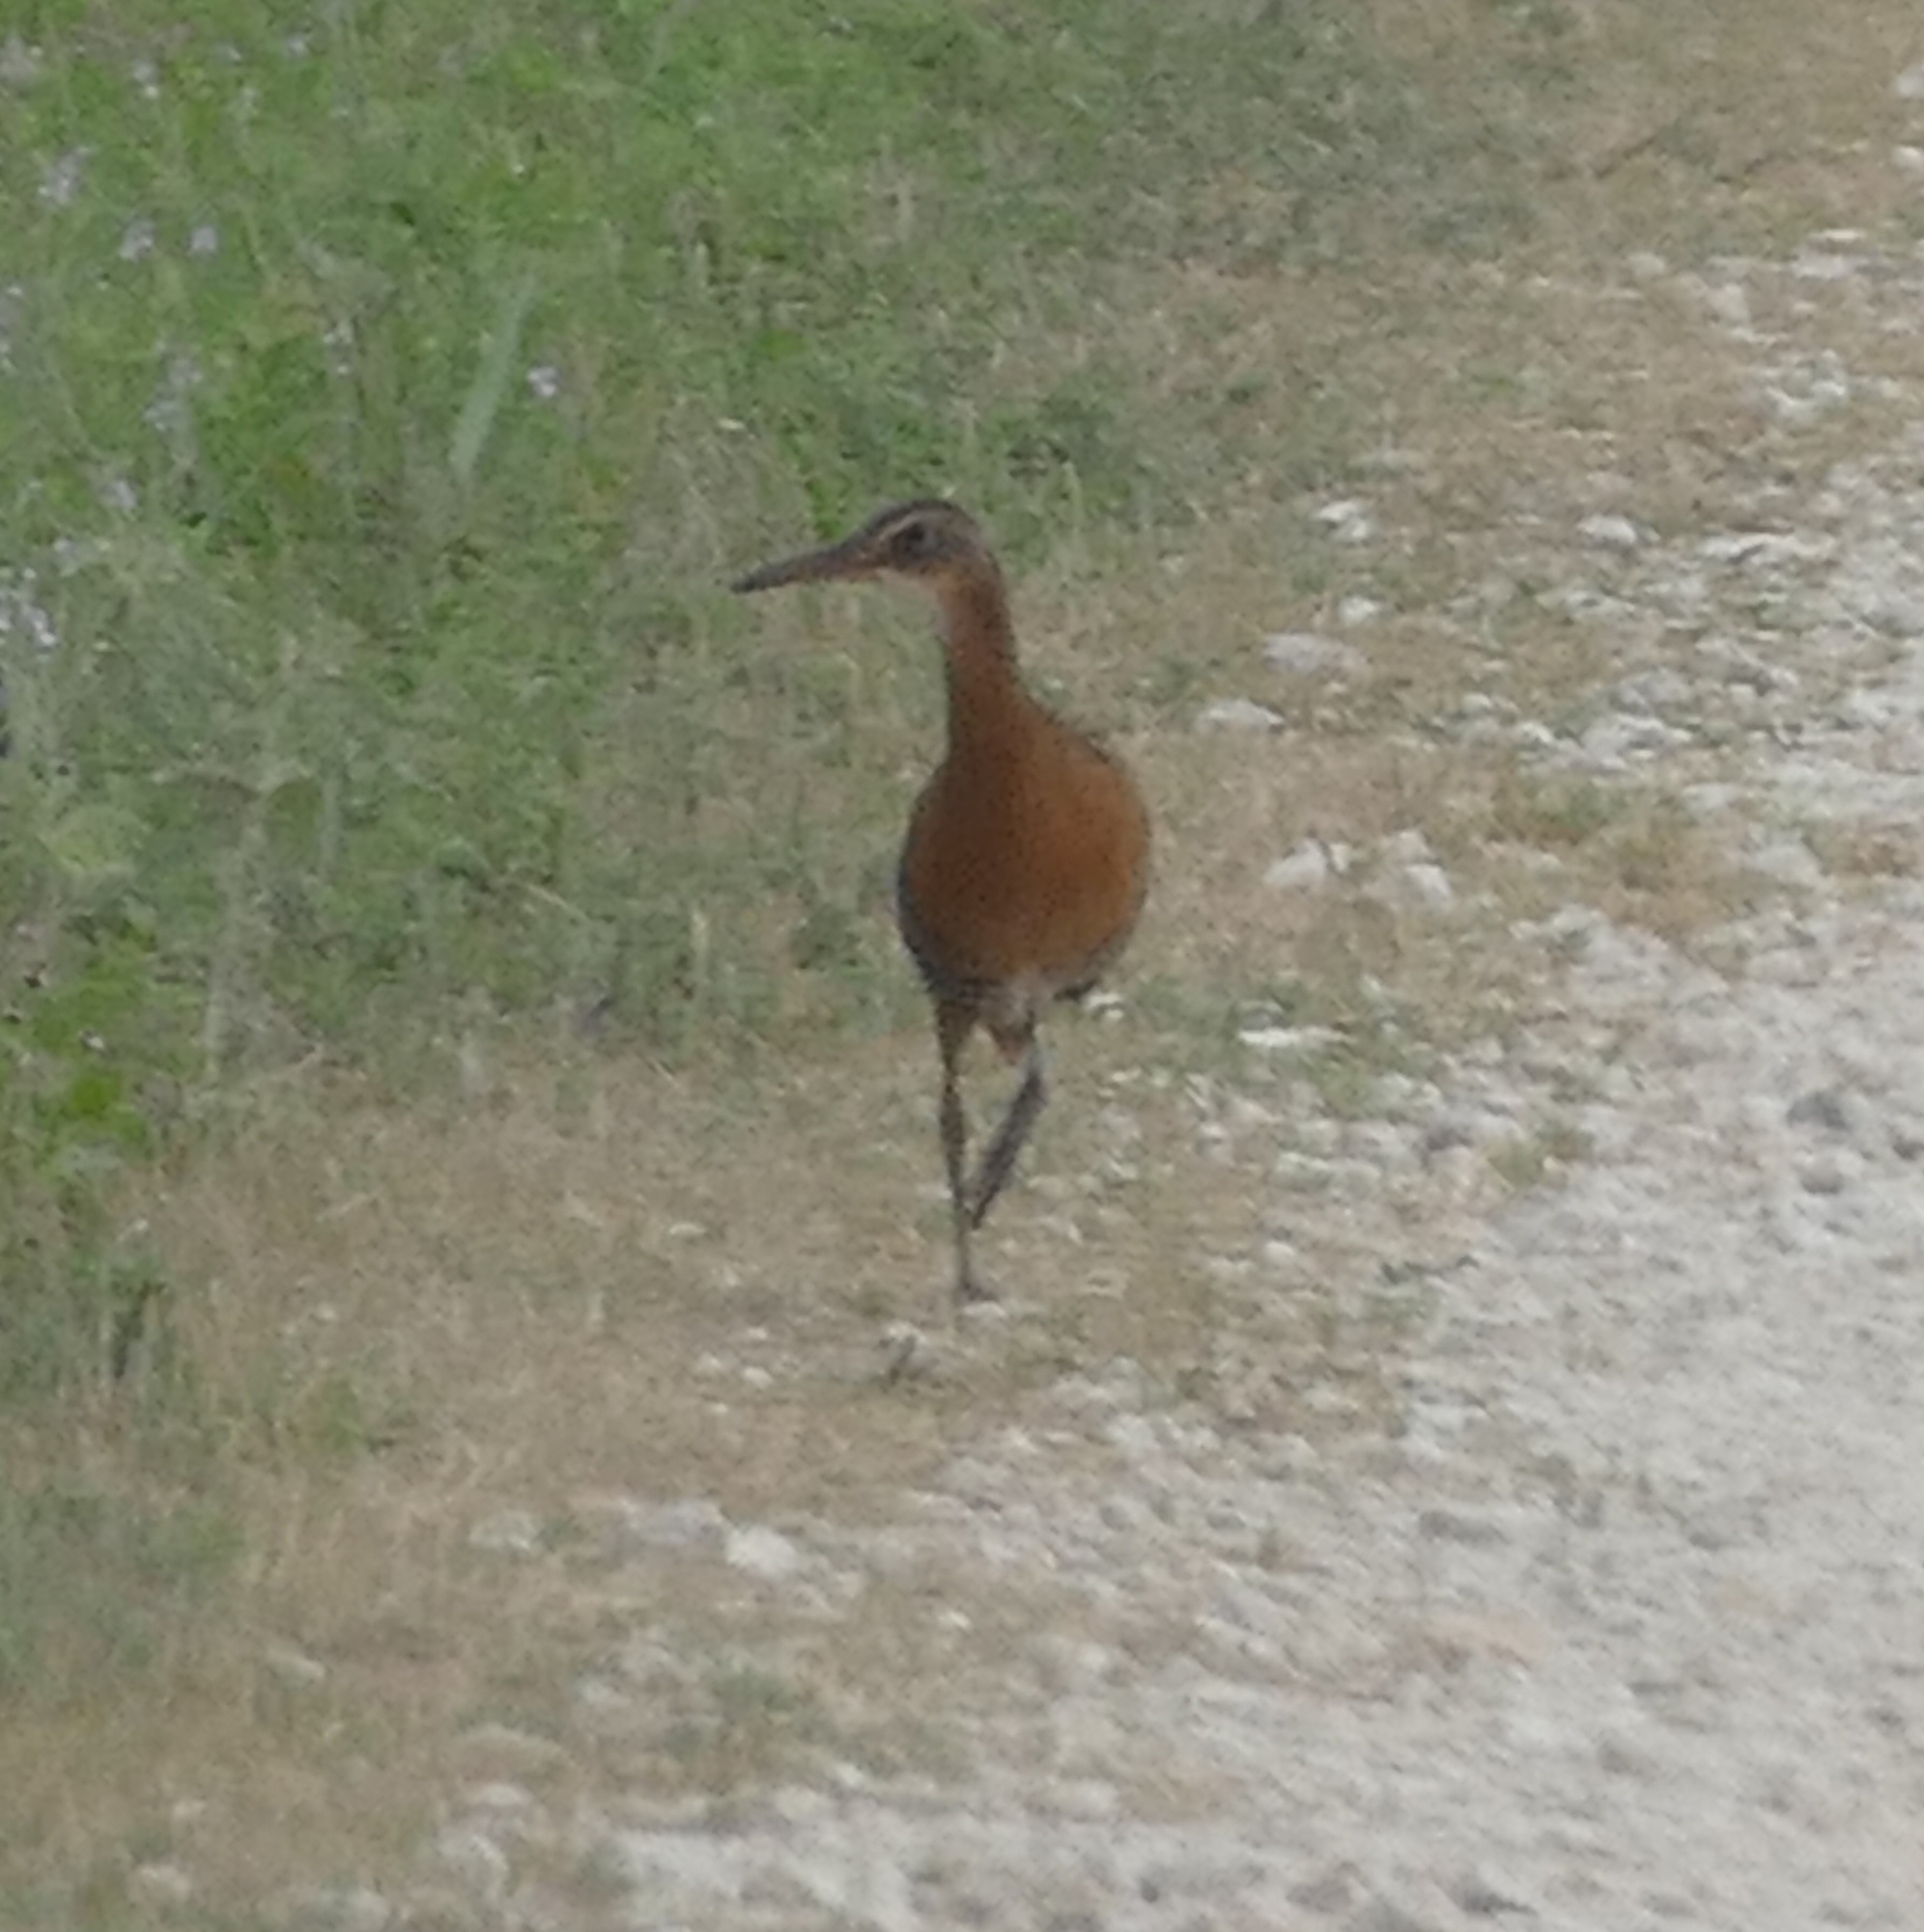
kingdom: Animalia
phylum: Chordata
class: Aves
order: Gruiformes
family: Rallidae
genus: Rallus
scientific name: Rallus elegans
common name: King rail
